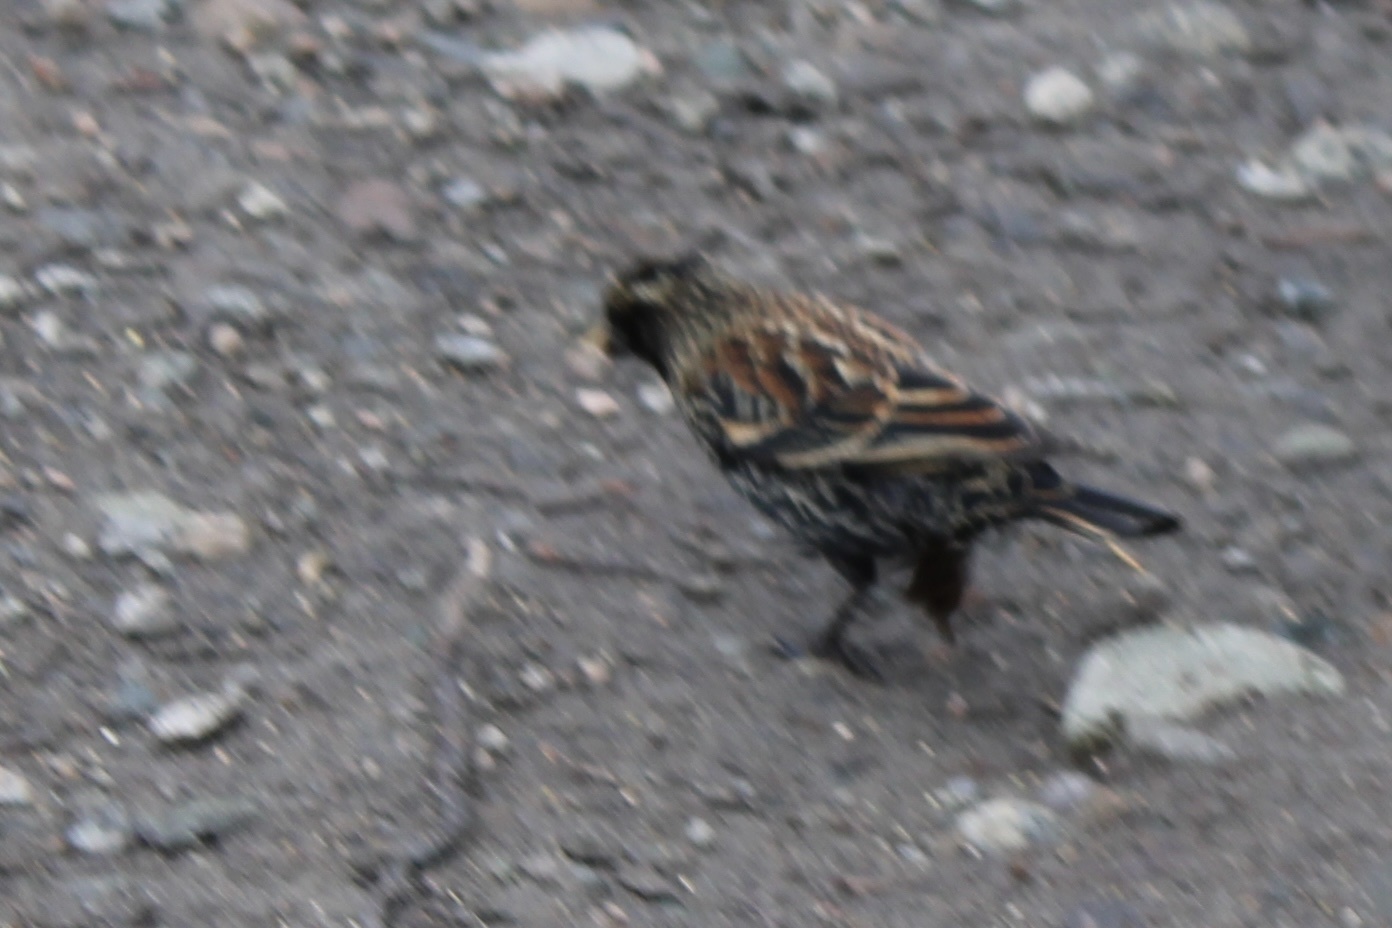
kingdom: Animalia
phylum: Chordata
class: Aves
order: Passeriformes
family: Icteridae
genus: Agelaius
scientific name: Agelaius phoeniceus
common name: Red-winged blackbird
